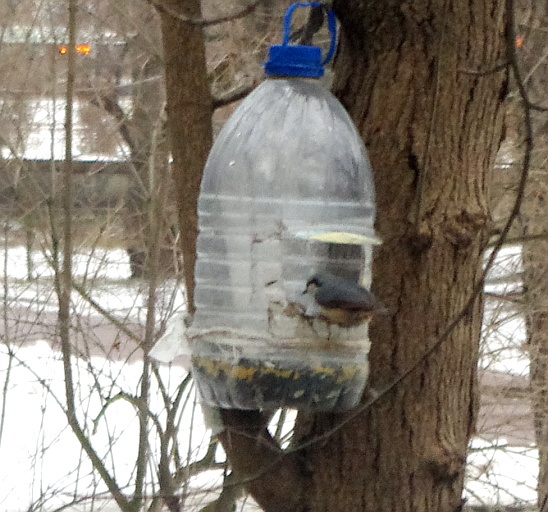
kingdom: Animalia
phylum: Chordata
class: Aves
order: Passeriformes
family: Sittidae
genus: Sitta
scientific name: Sitta europaea
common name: Eurasian nuthatch
